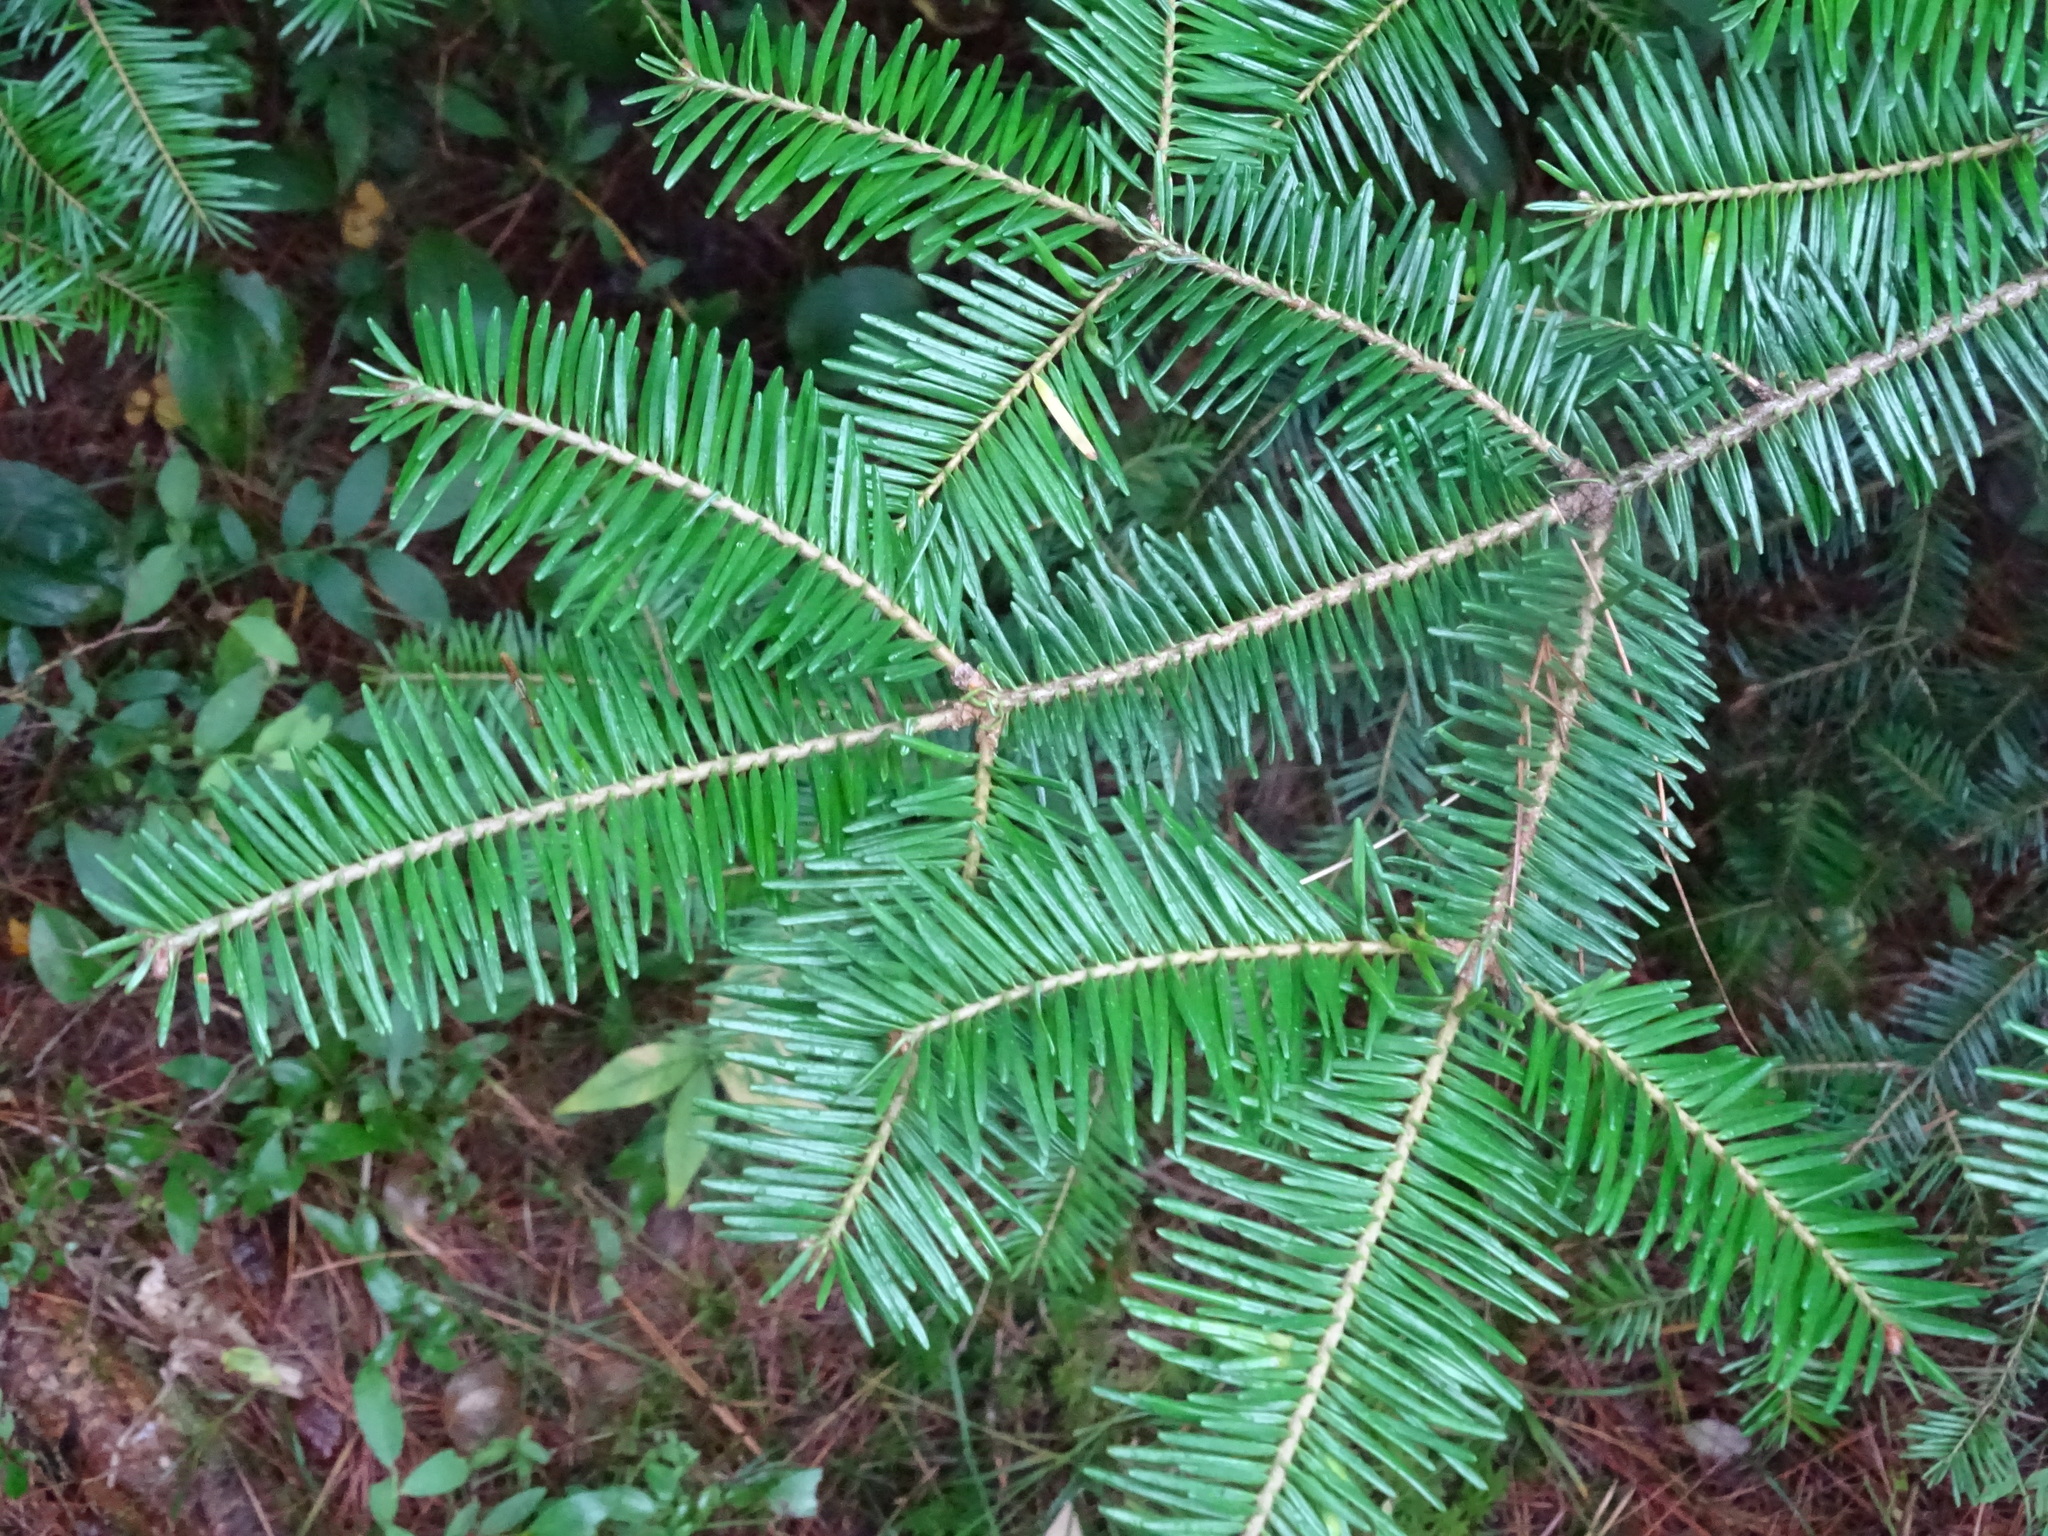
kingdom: Plantae
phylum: Tracheophyta
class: Pinopsida
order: Pinales
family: Pinaceae
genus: Abies
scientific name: Abies balsamea
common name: Balsam fir
